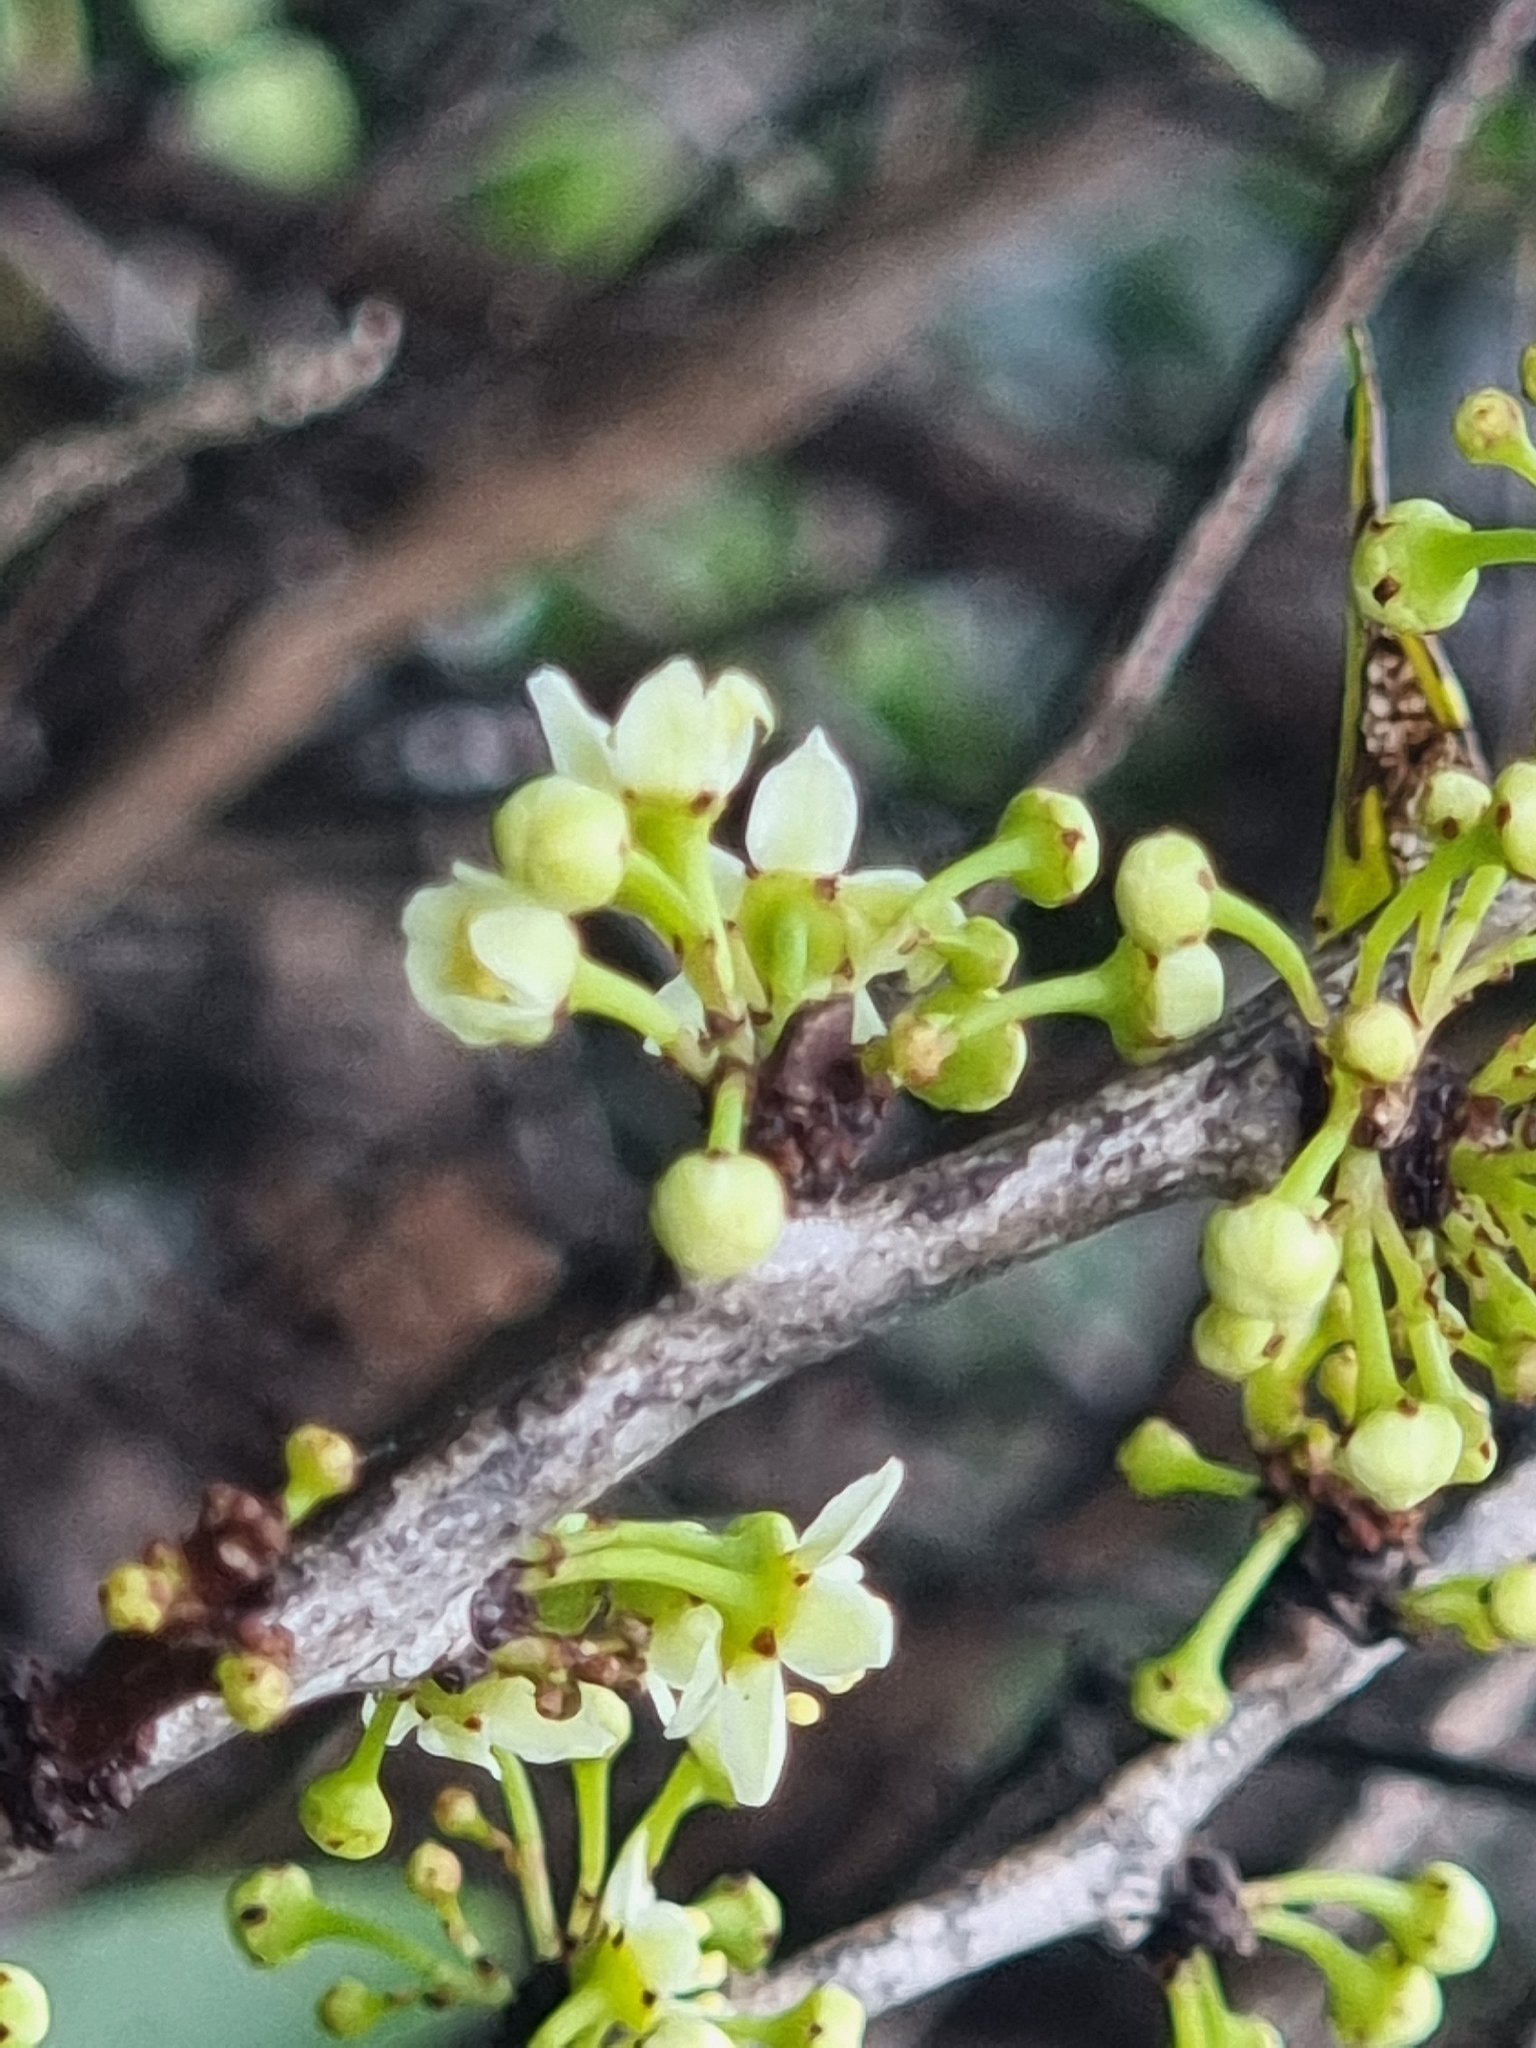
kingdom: Plantae
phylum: Tracheophyta
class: Magnoliopsida
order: Celastrales
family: Celastraceae
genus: Gymnosporia
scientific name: Gymnosporia dryandri
